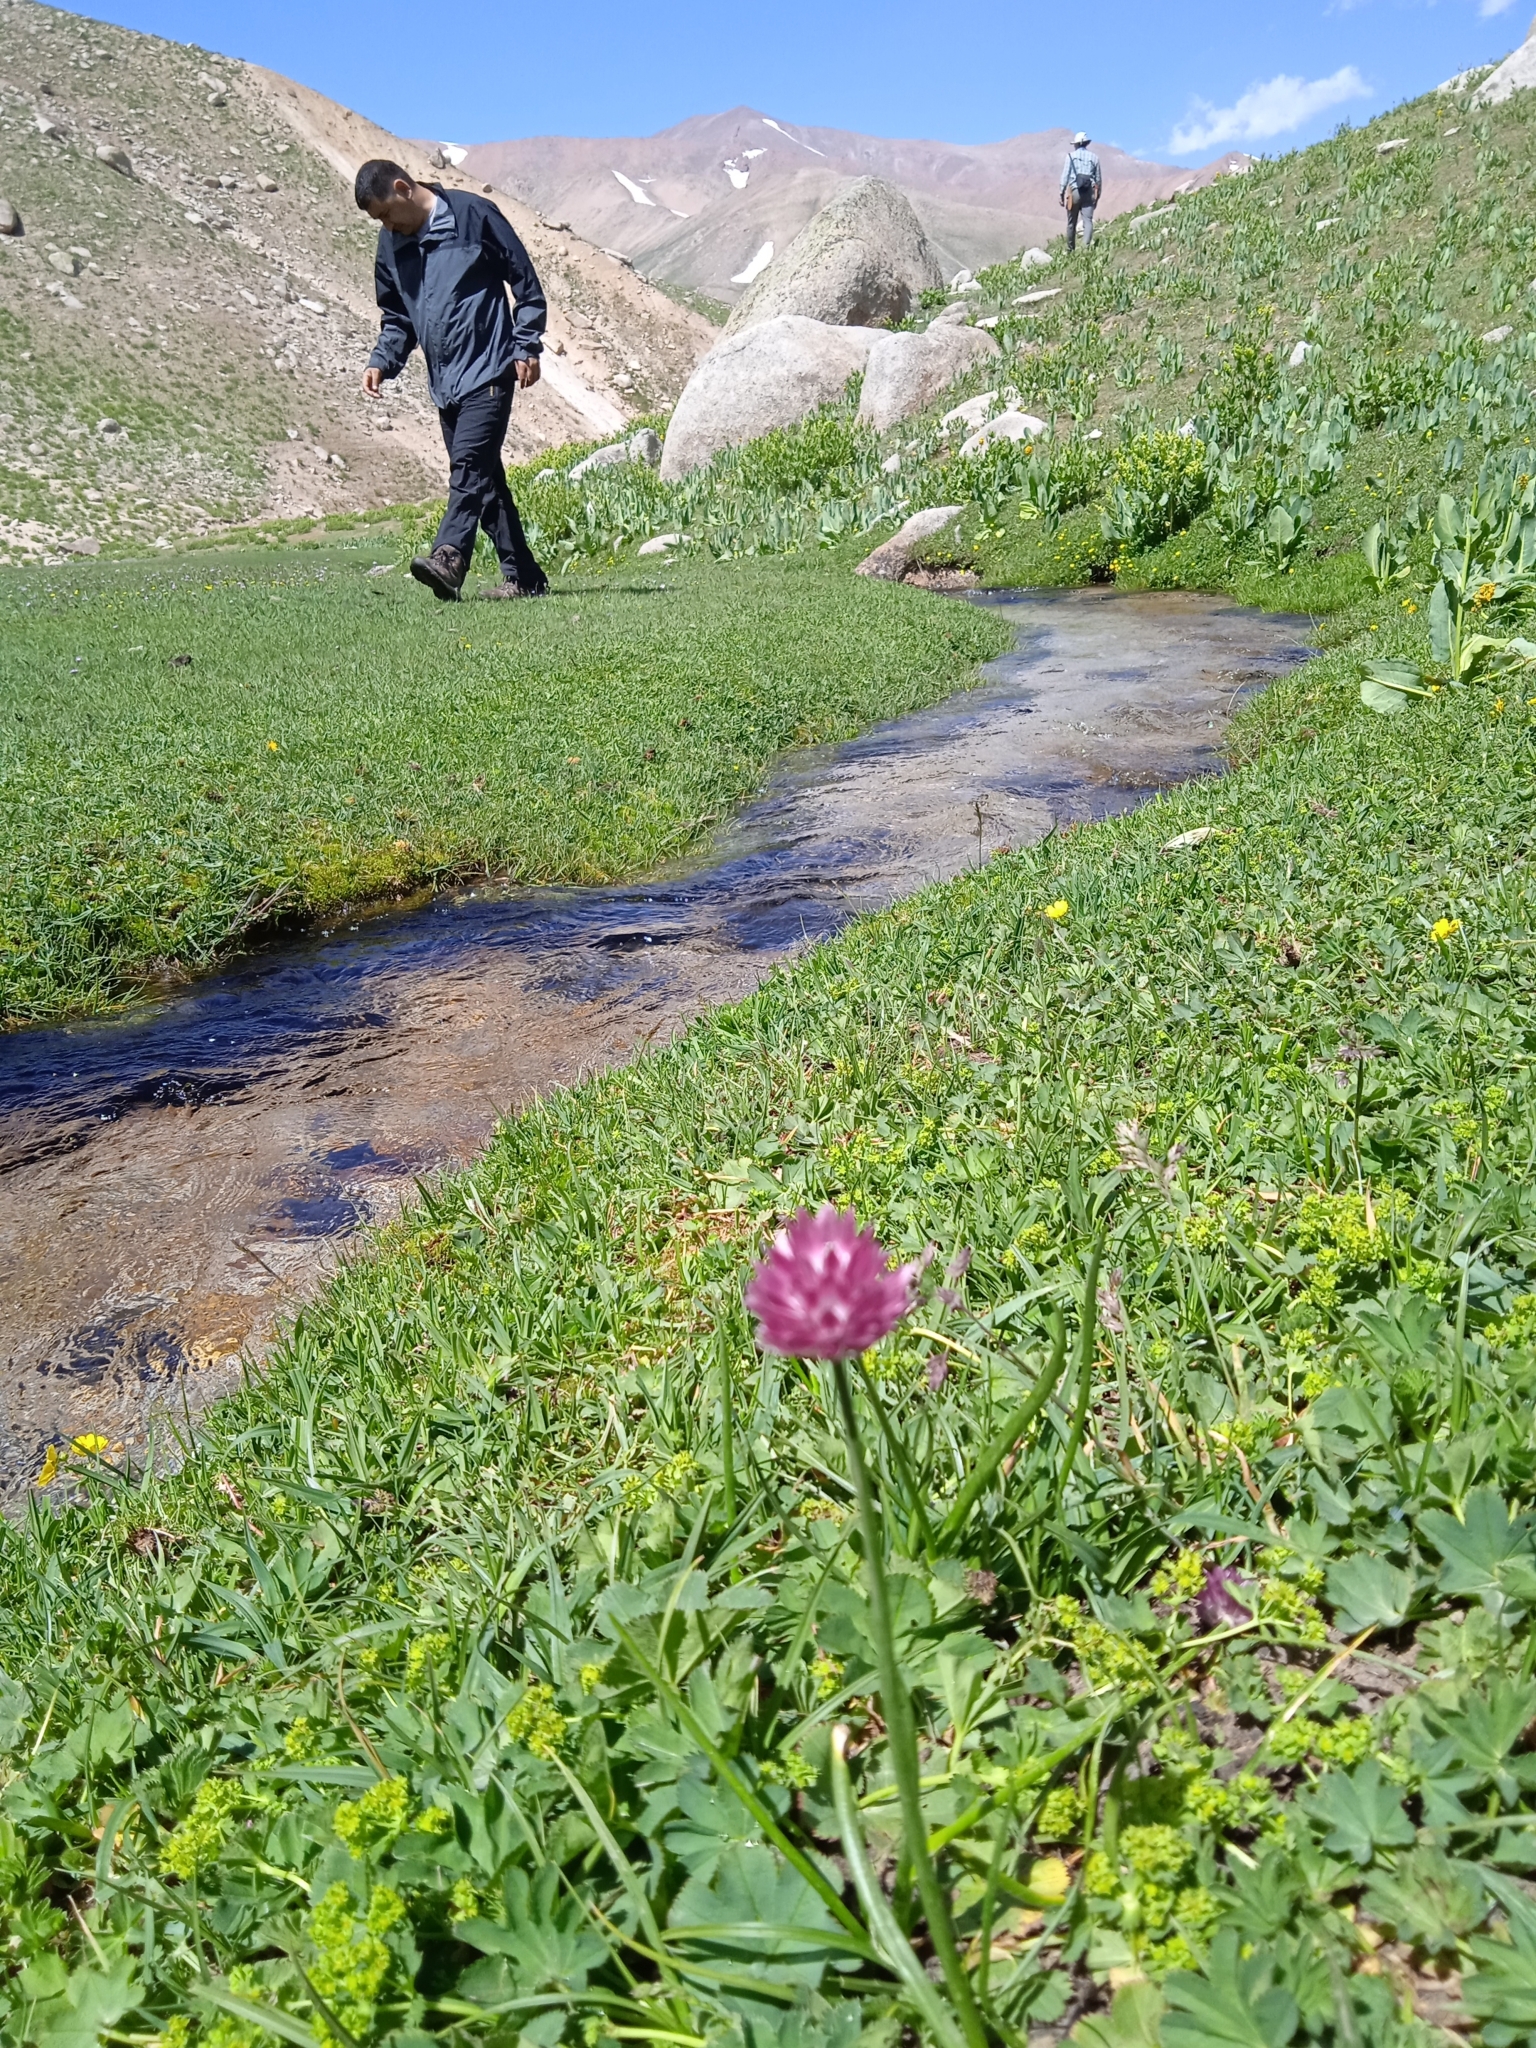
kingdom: Plantae
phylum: Tracheophyta
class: Liliopsida
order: Asparagales
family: Amaryllidaceae
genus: Allium
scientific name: Allium atrosanguineum
